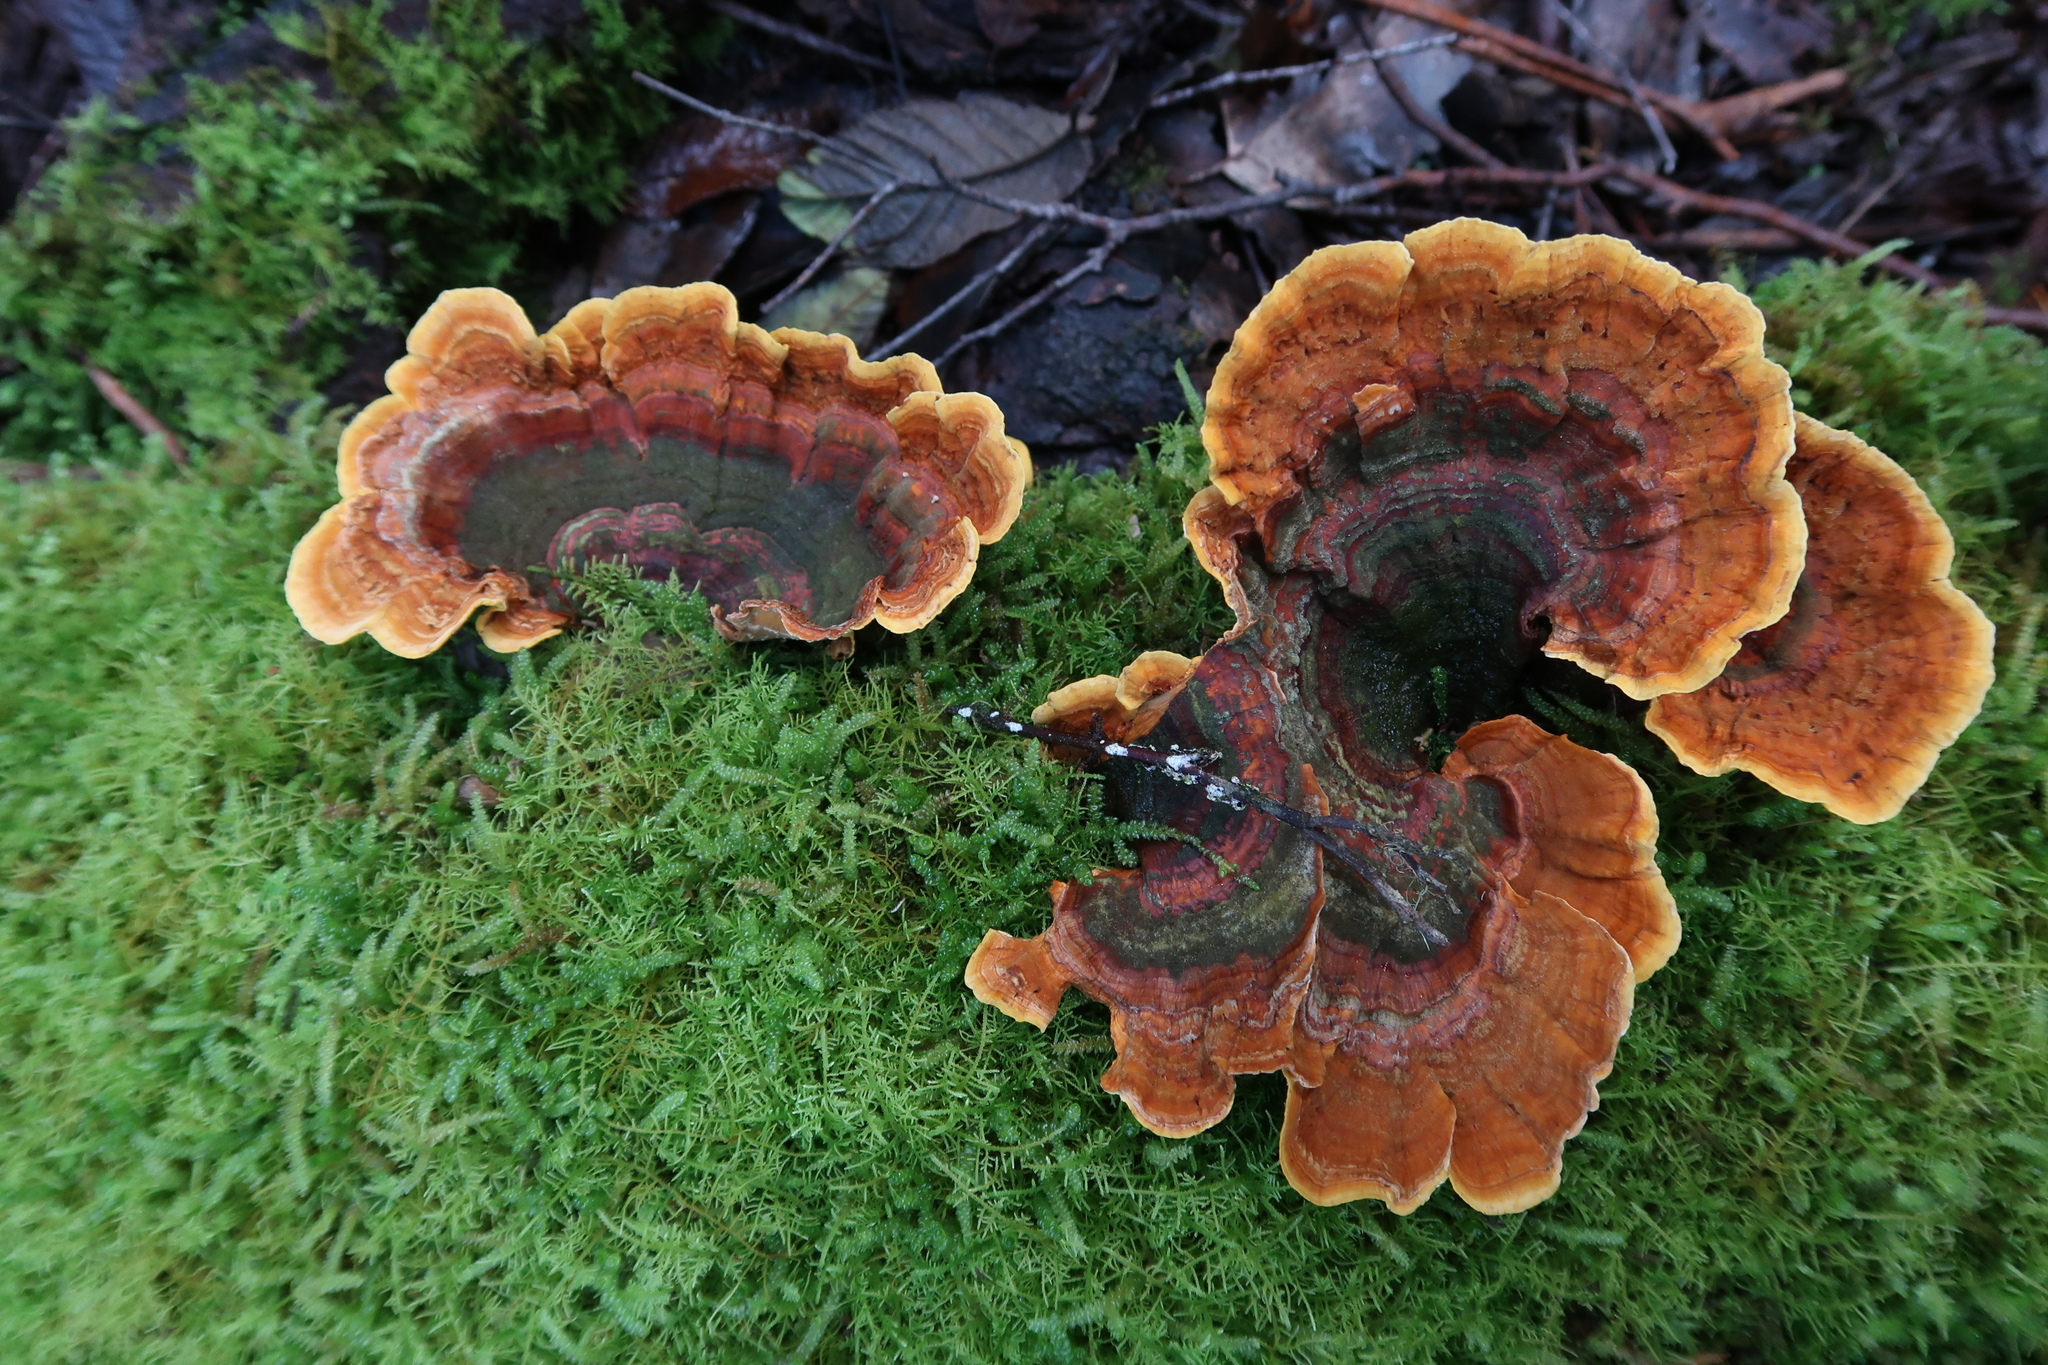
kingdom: Fungi
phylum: Basidiomycota
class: Agaricomycetes
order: Russulales
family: Stereaceae
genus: Stereum
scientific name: Stereum versicolor
